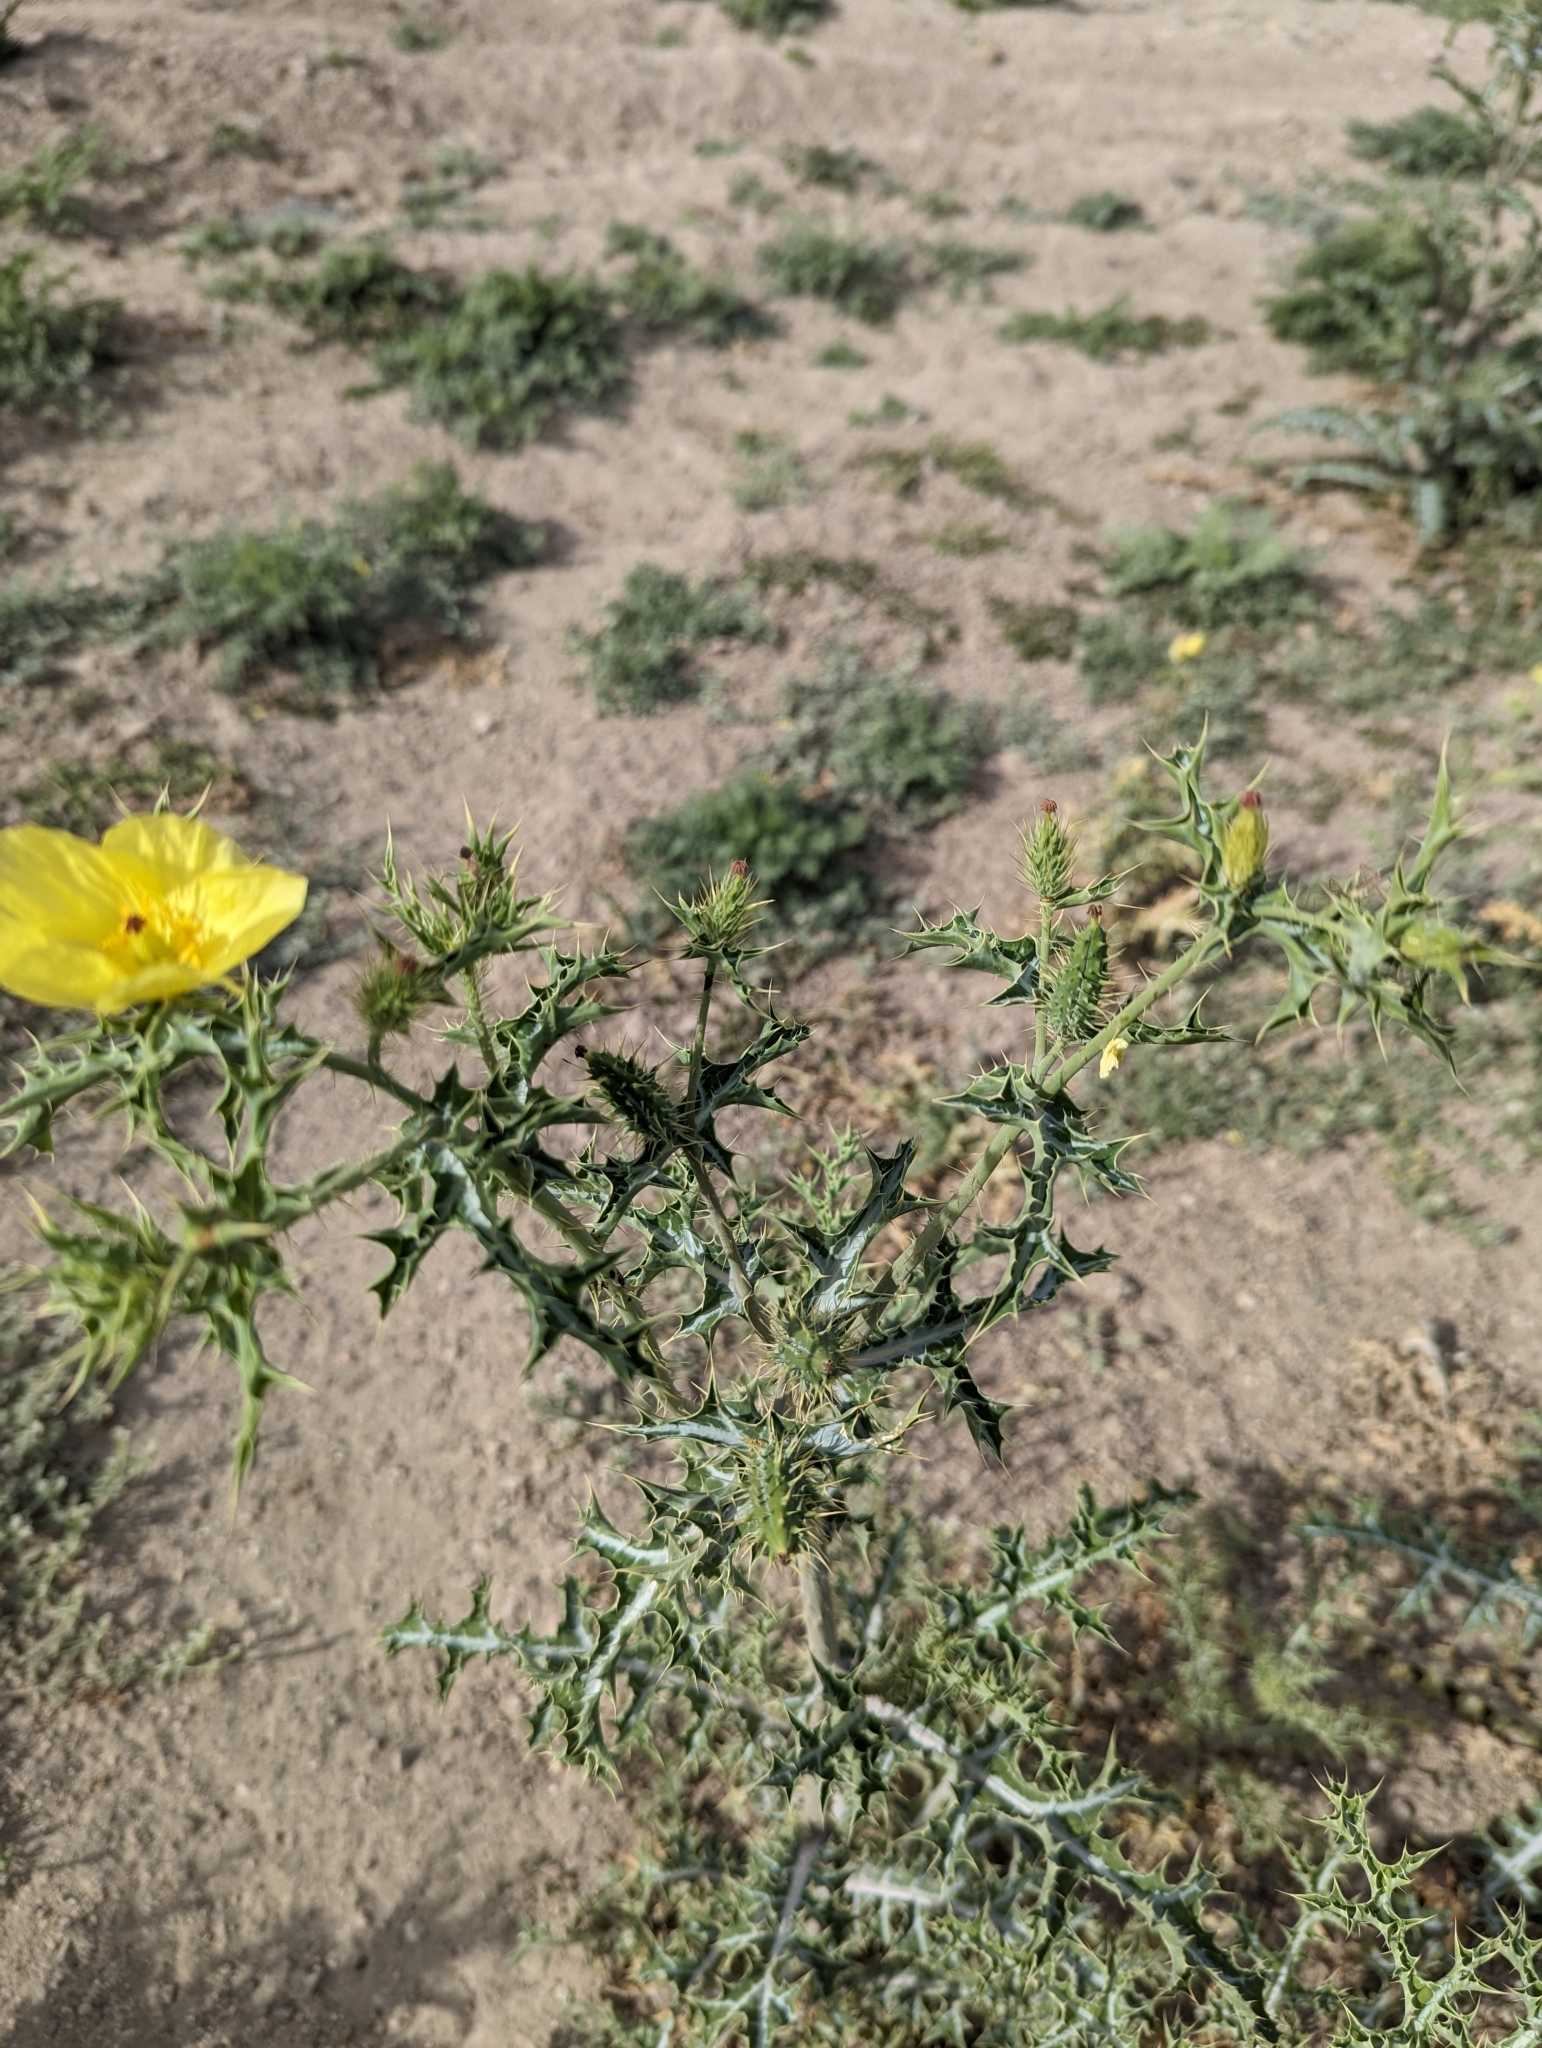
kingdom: Plantae
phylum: Tracheophyta
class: Magnoliopsida
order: Ranunculales
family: Papaveraceae
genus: Argemone
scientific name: Argemone mexicana
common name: Mexican poppy
